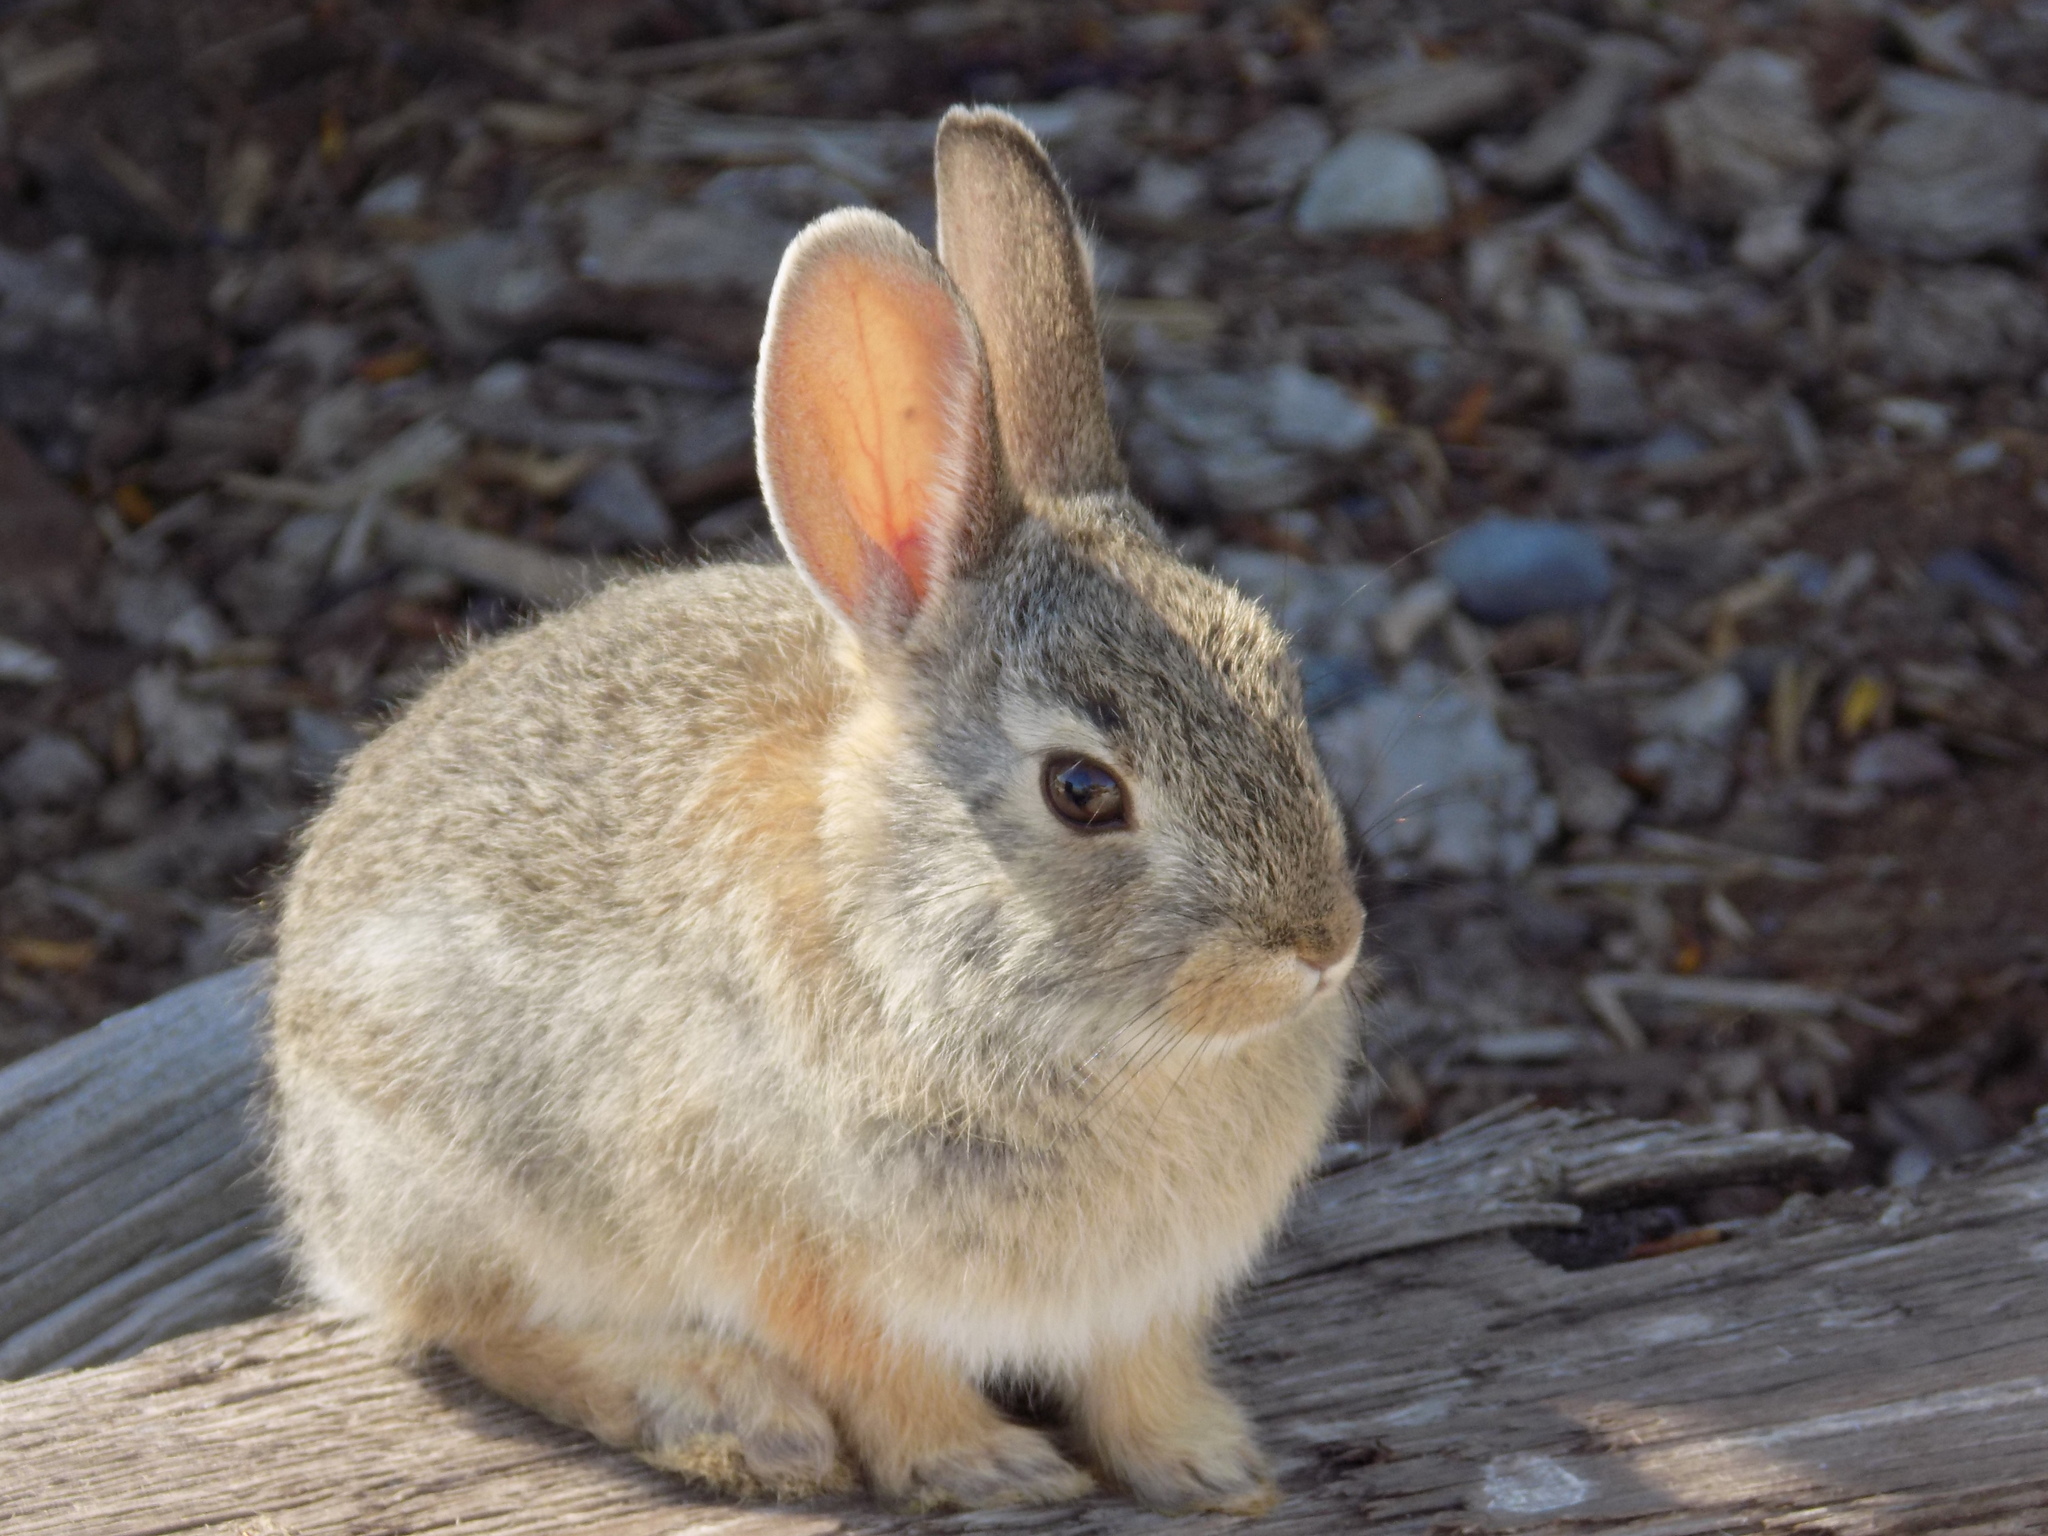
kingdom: Animalia
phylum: Chordata
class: Mammalia
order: Lagomorpha
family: Leporidae
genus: Sylvilagus
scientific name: Sylvilagus nuttallii
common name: Mountain cottontail
